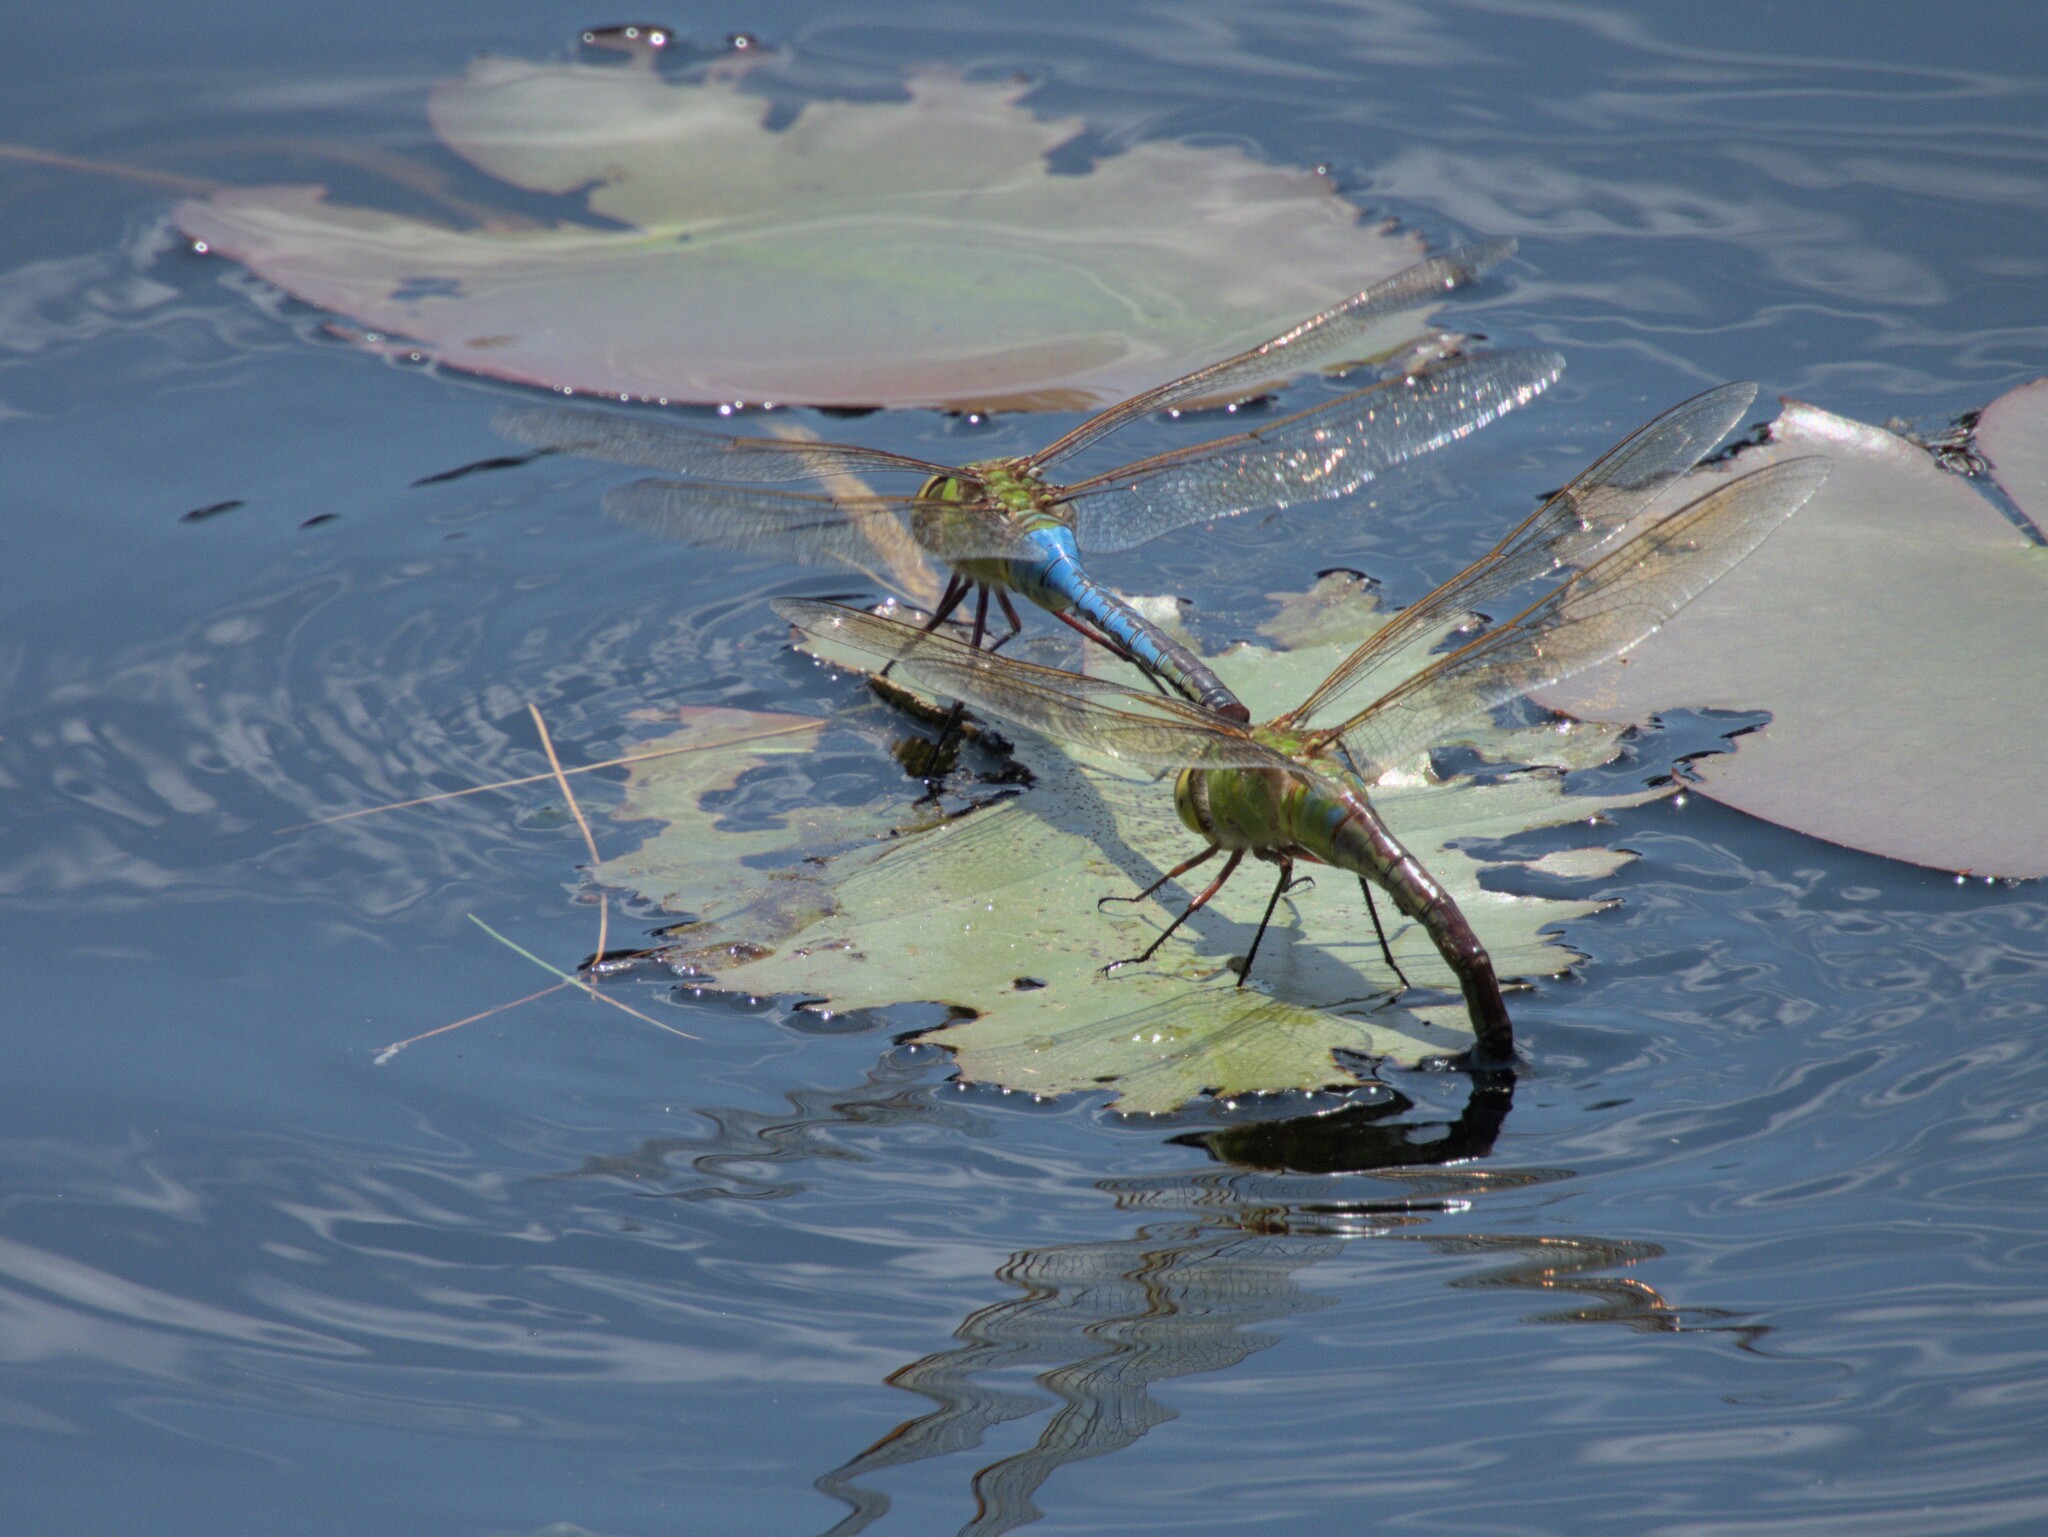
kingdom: Animalia
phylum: Arthropoda
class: Insecta
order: Odonata
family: Aeshnidae
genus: Anax
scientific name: Anax junius
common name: Common green darner
